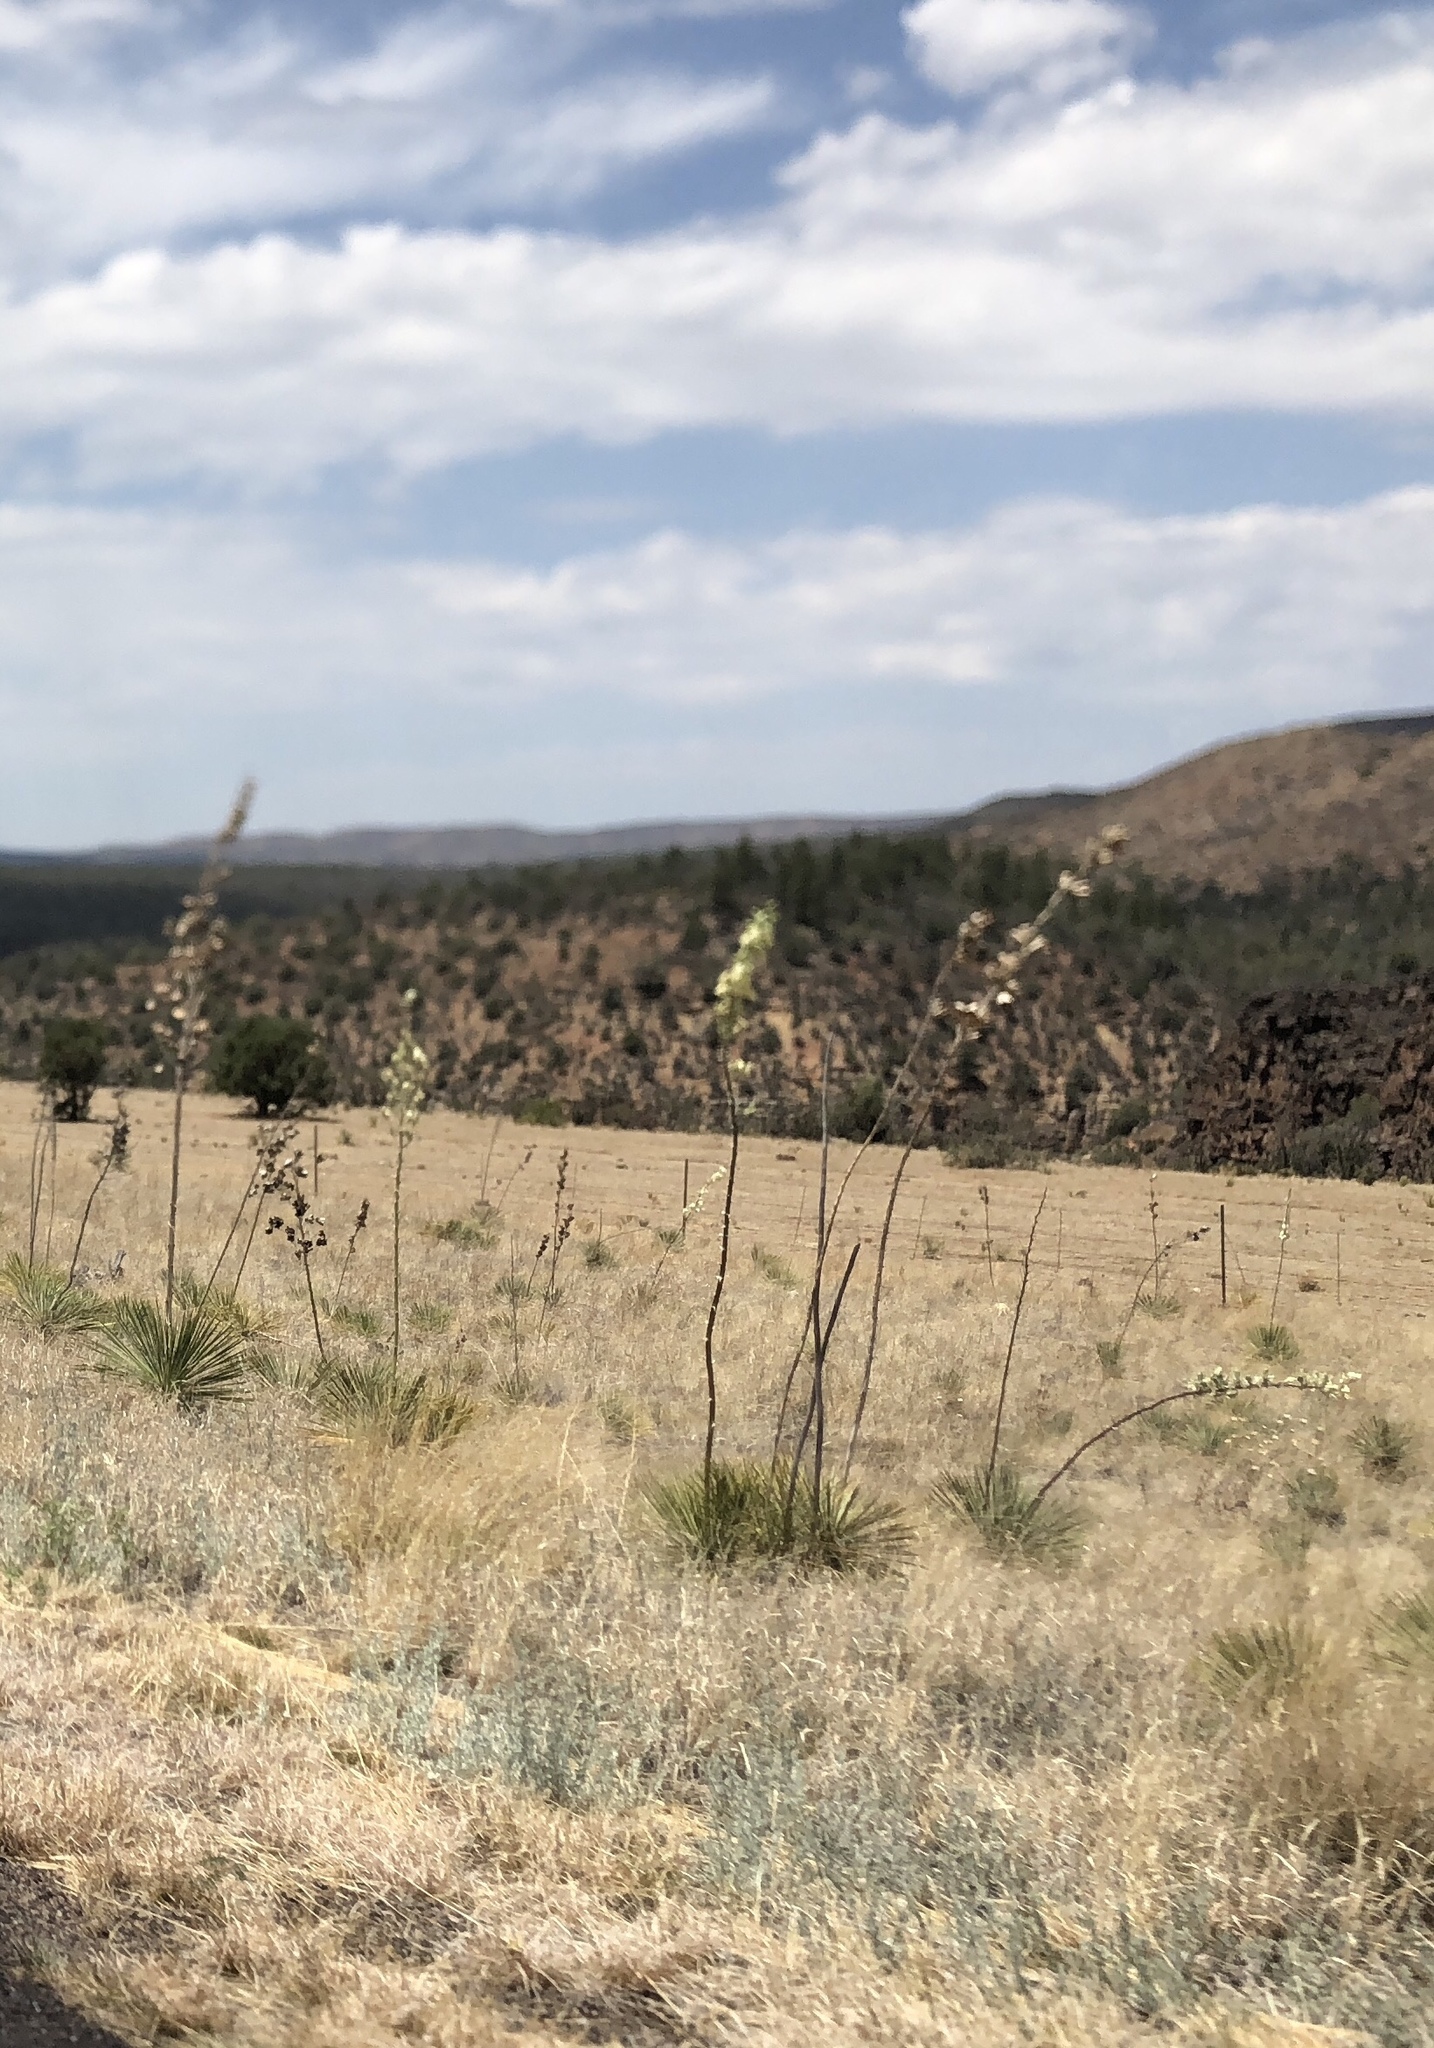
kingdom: Plantae
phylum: Tracheophyta
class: Liliopsida
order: Asparagales
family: Asparagaceae
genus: Yucca
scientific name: Yucca elata
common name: Palmella
